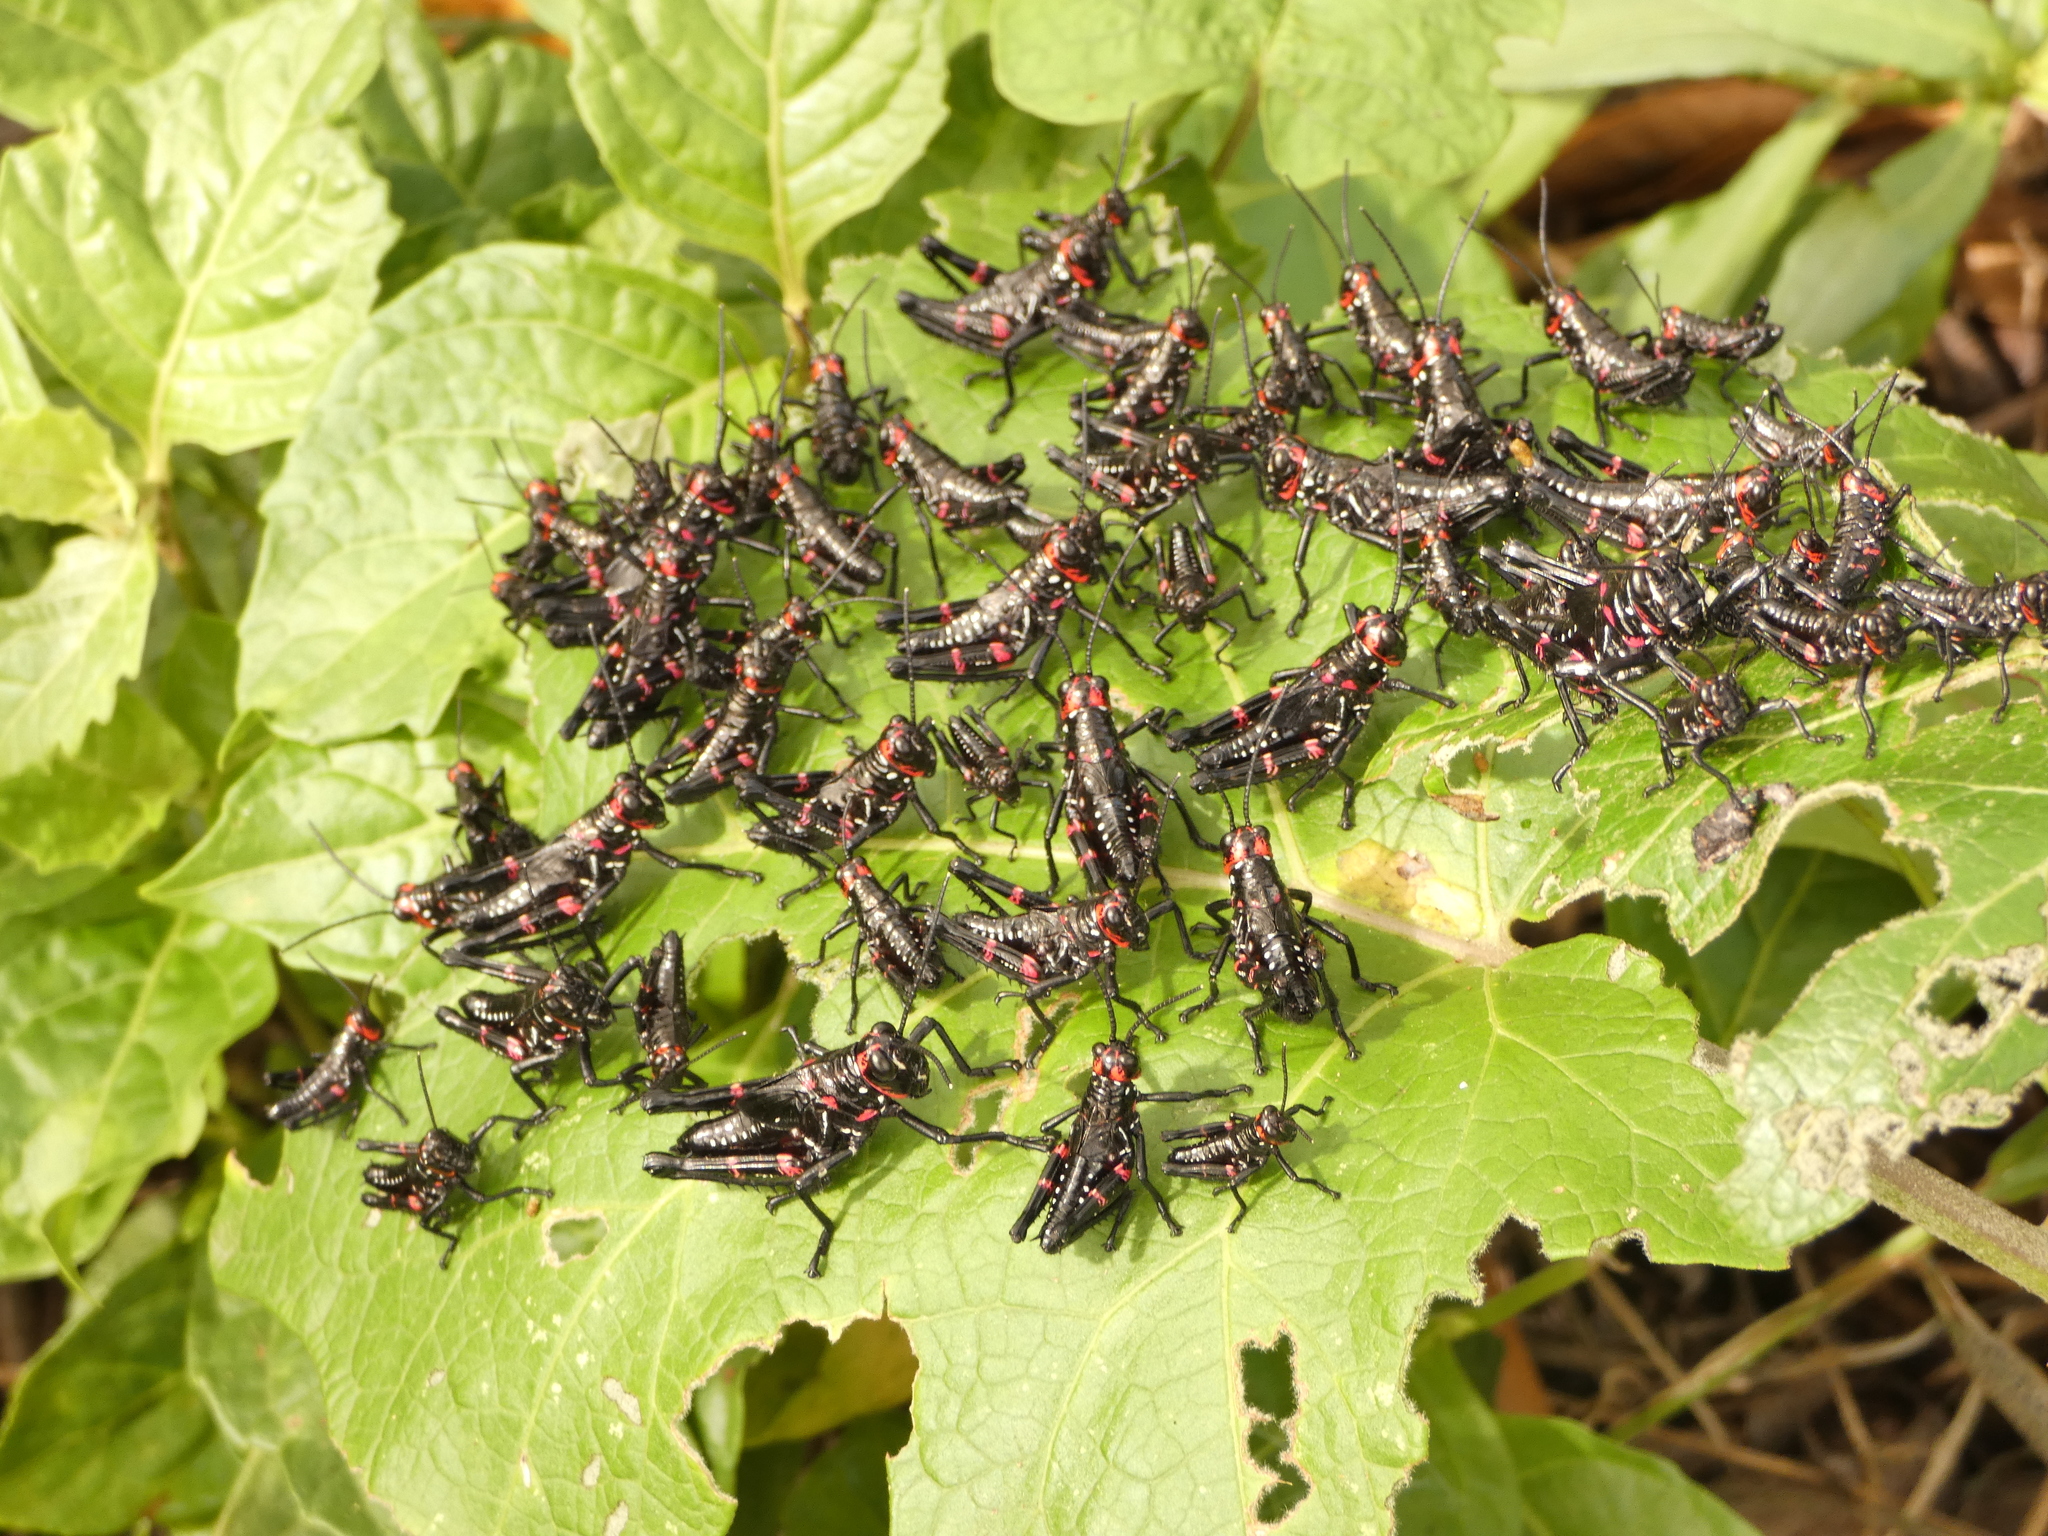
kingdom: Animalia
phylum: Arthropoda
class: Insecta
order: Orthoptera
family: Romaleidae
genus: Chromacris
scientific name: Chromacris speciosa
